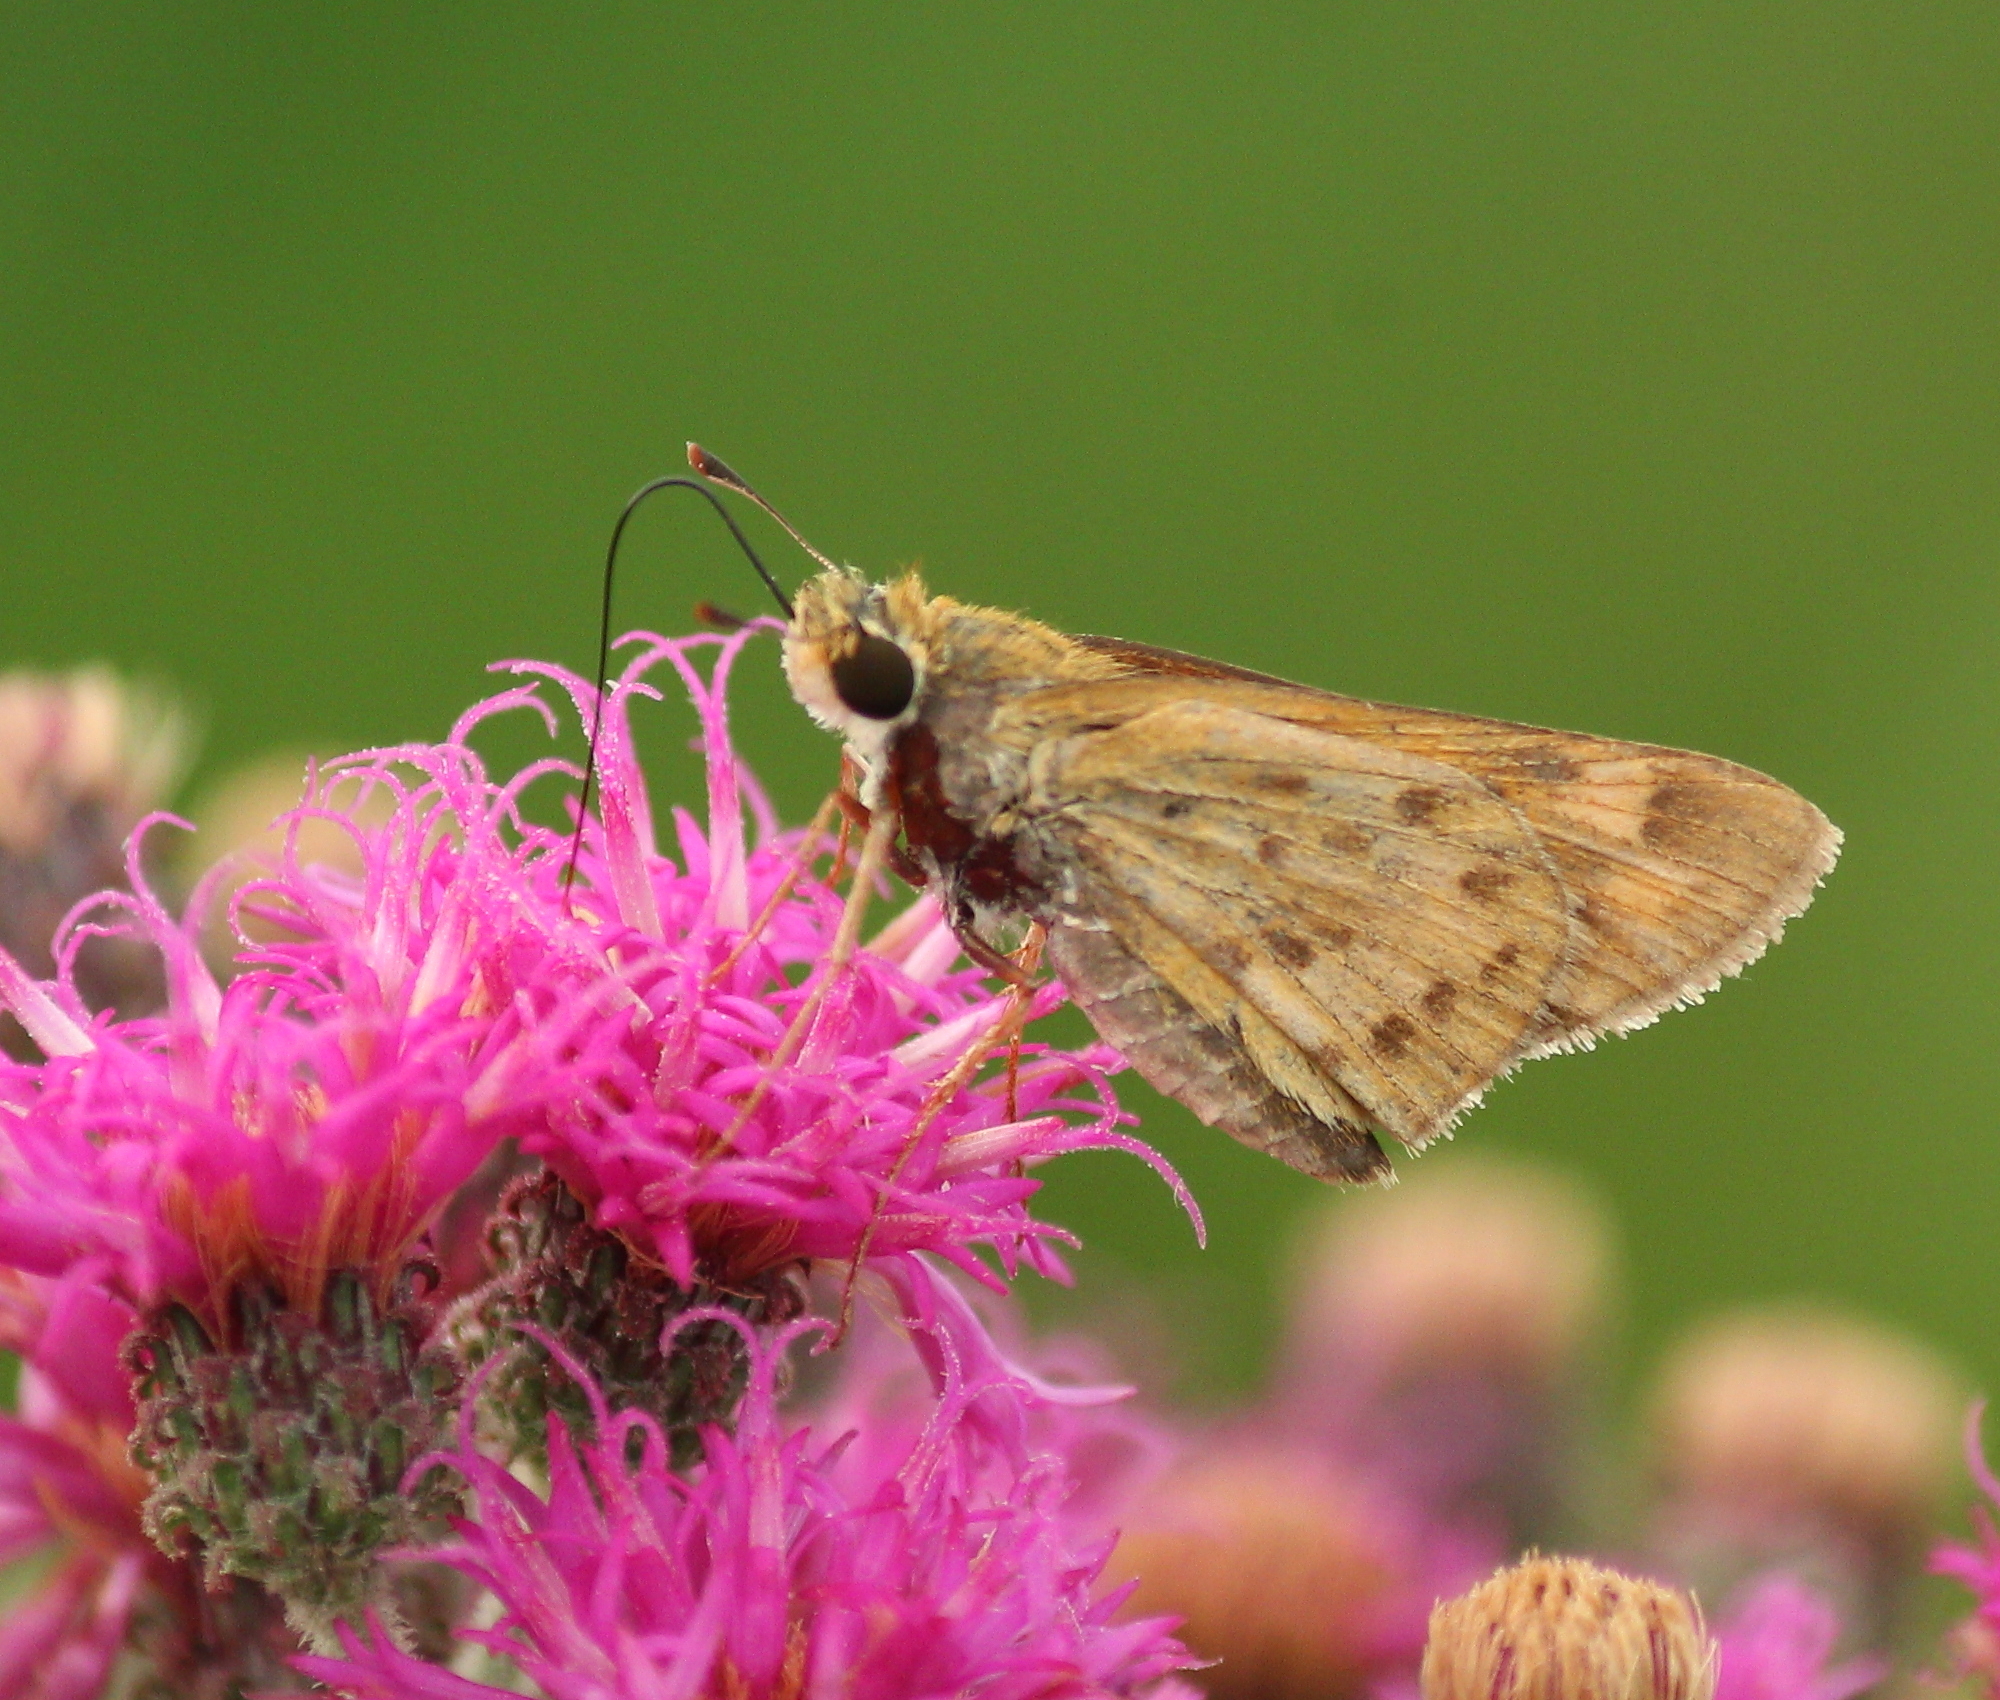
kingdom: Animalia
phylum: Arthropoda
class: Insecta
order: Lepidoptera
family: Hesperiidae
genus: Hylephila
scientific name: Hylephila phyleus
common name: Fiery skipper
